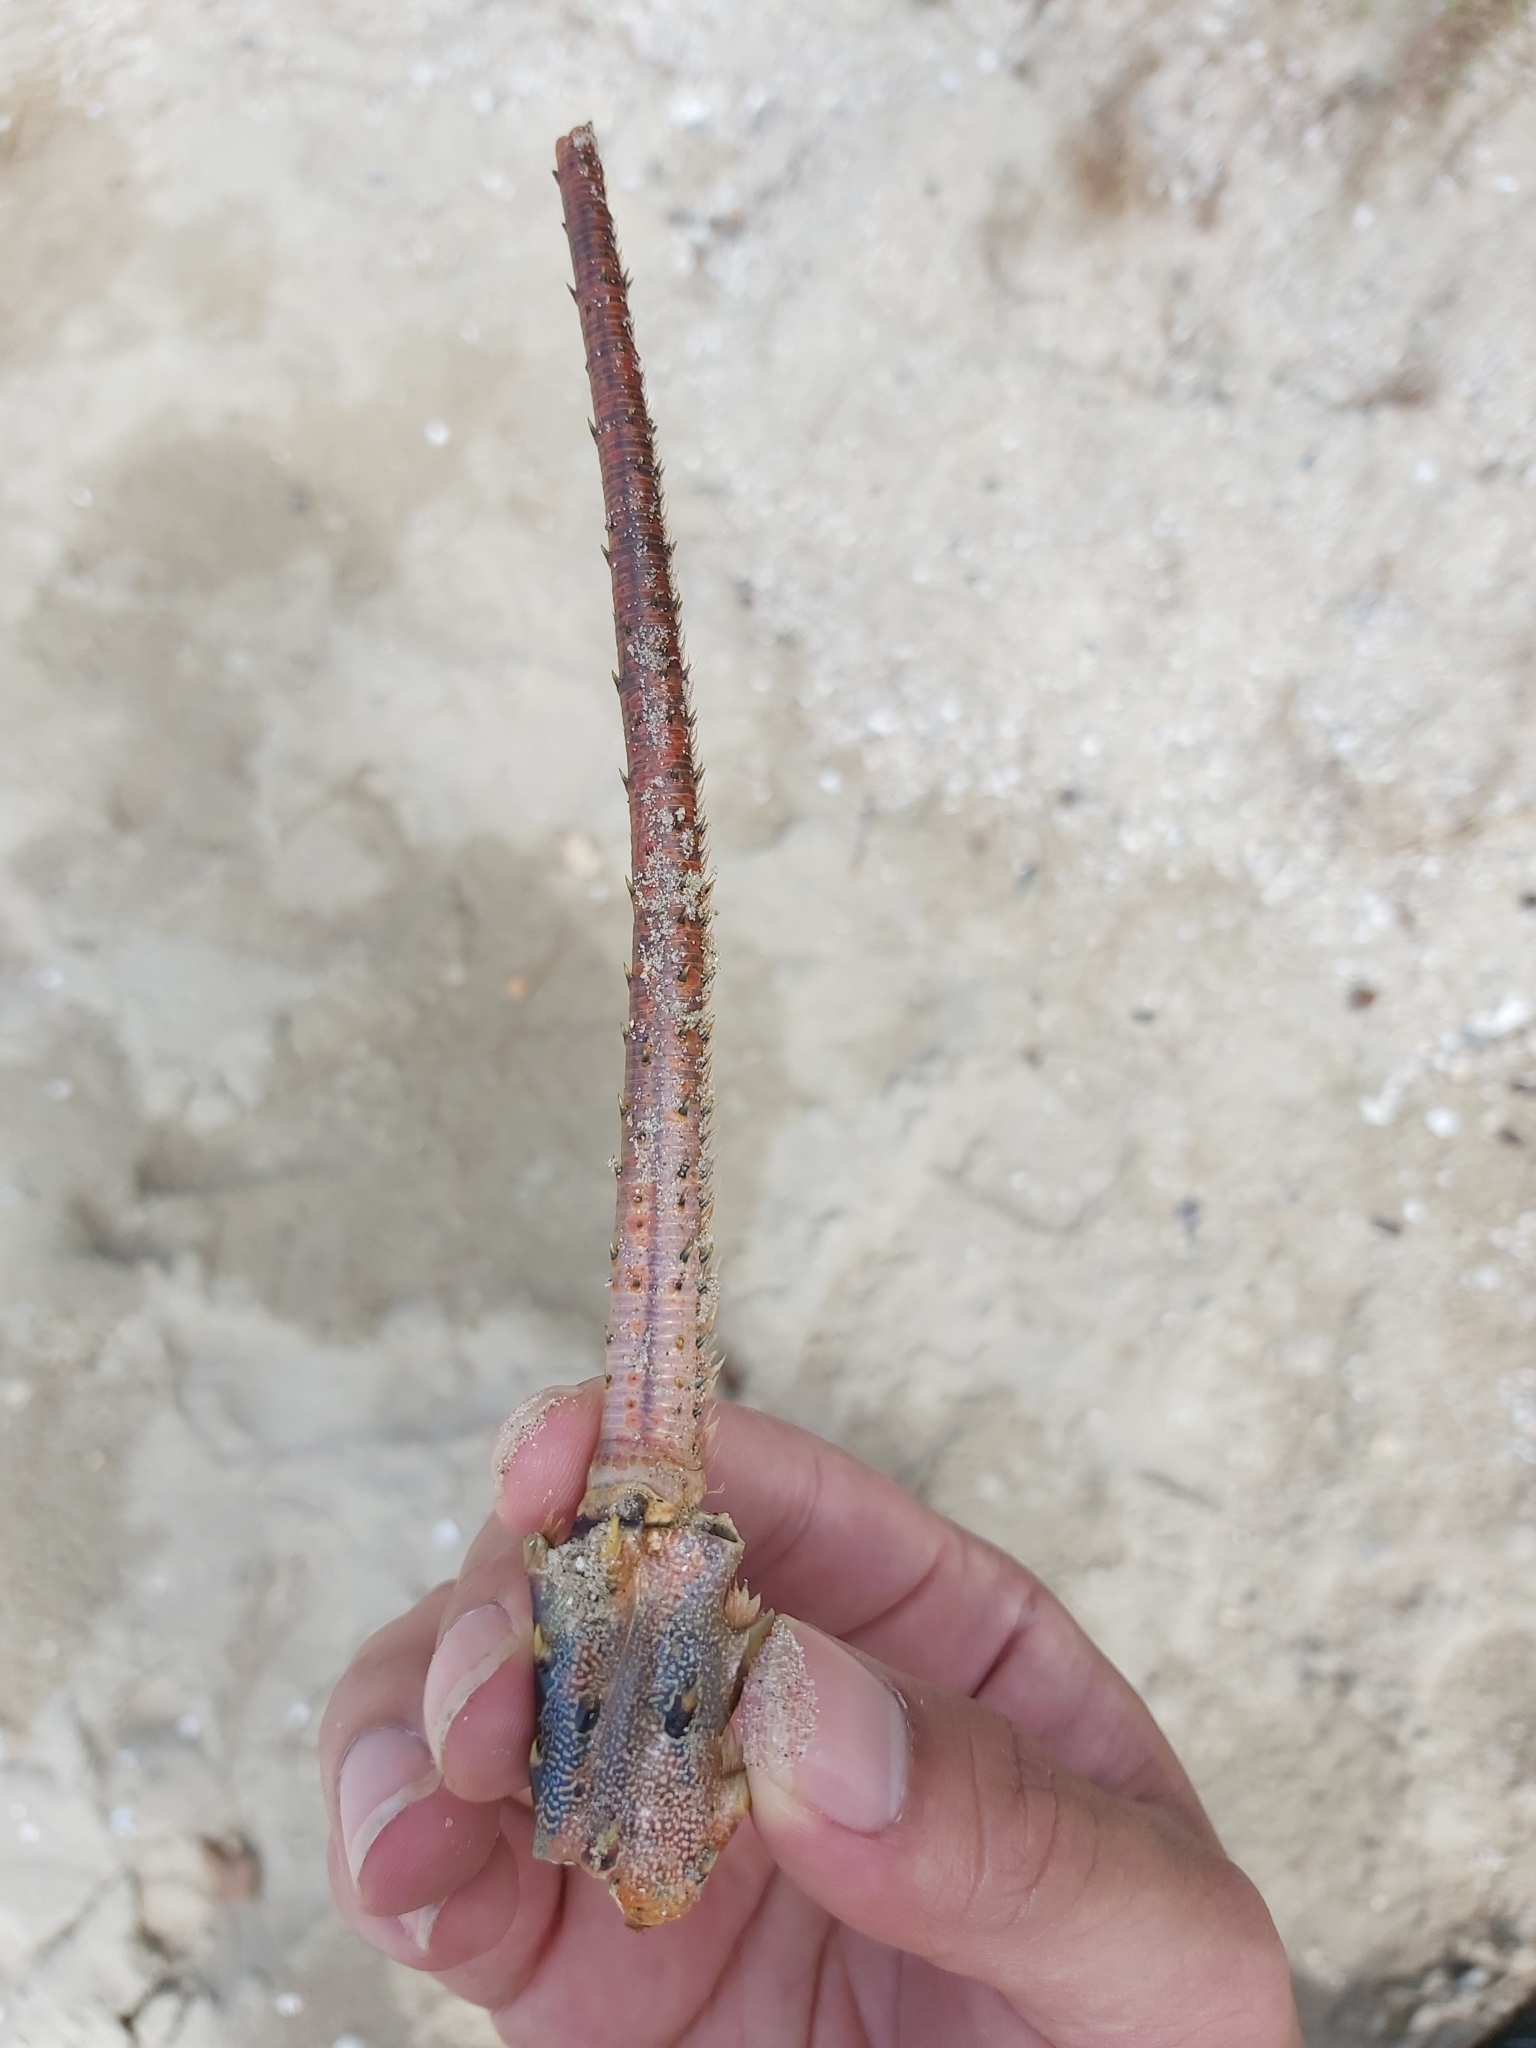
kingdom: Animalia
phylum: Arthropoda
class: Malacostraca
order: Decapoda
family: Palinuridae
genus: Panulirus
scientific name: Panulirus ornatus
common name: Ornate spiny lobster
